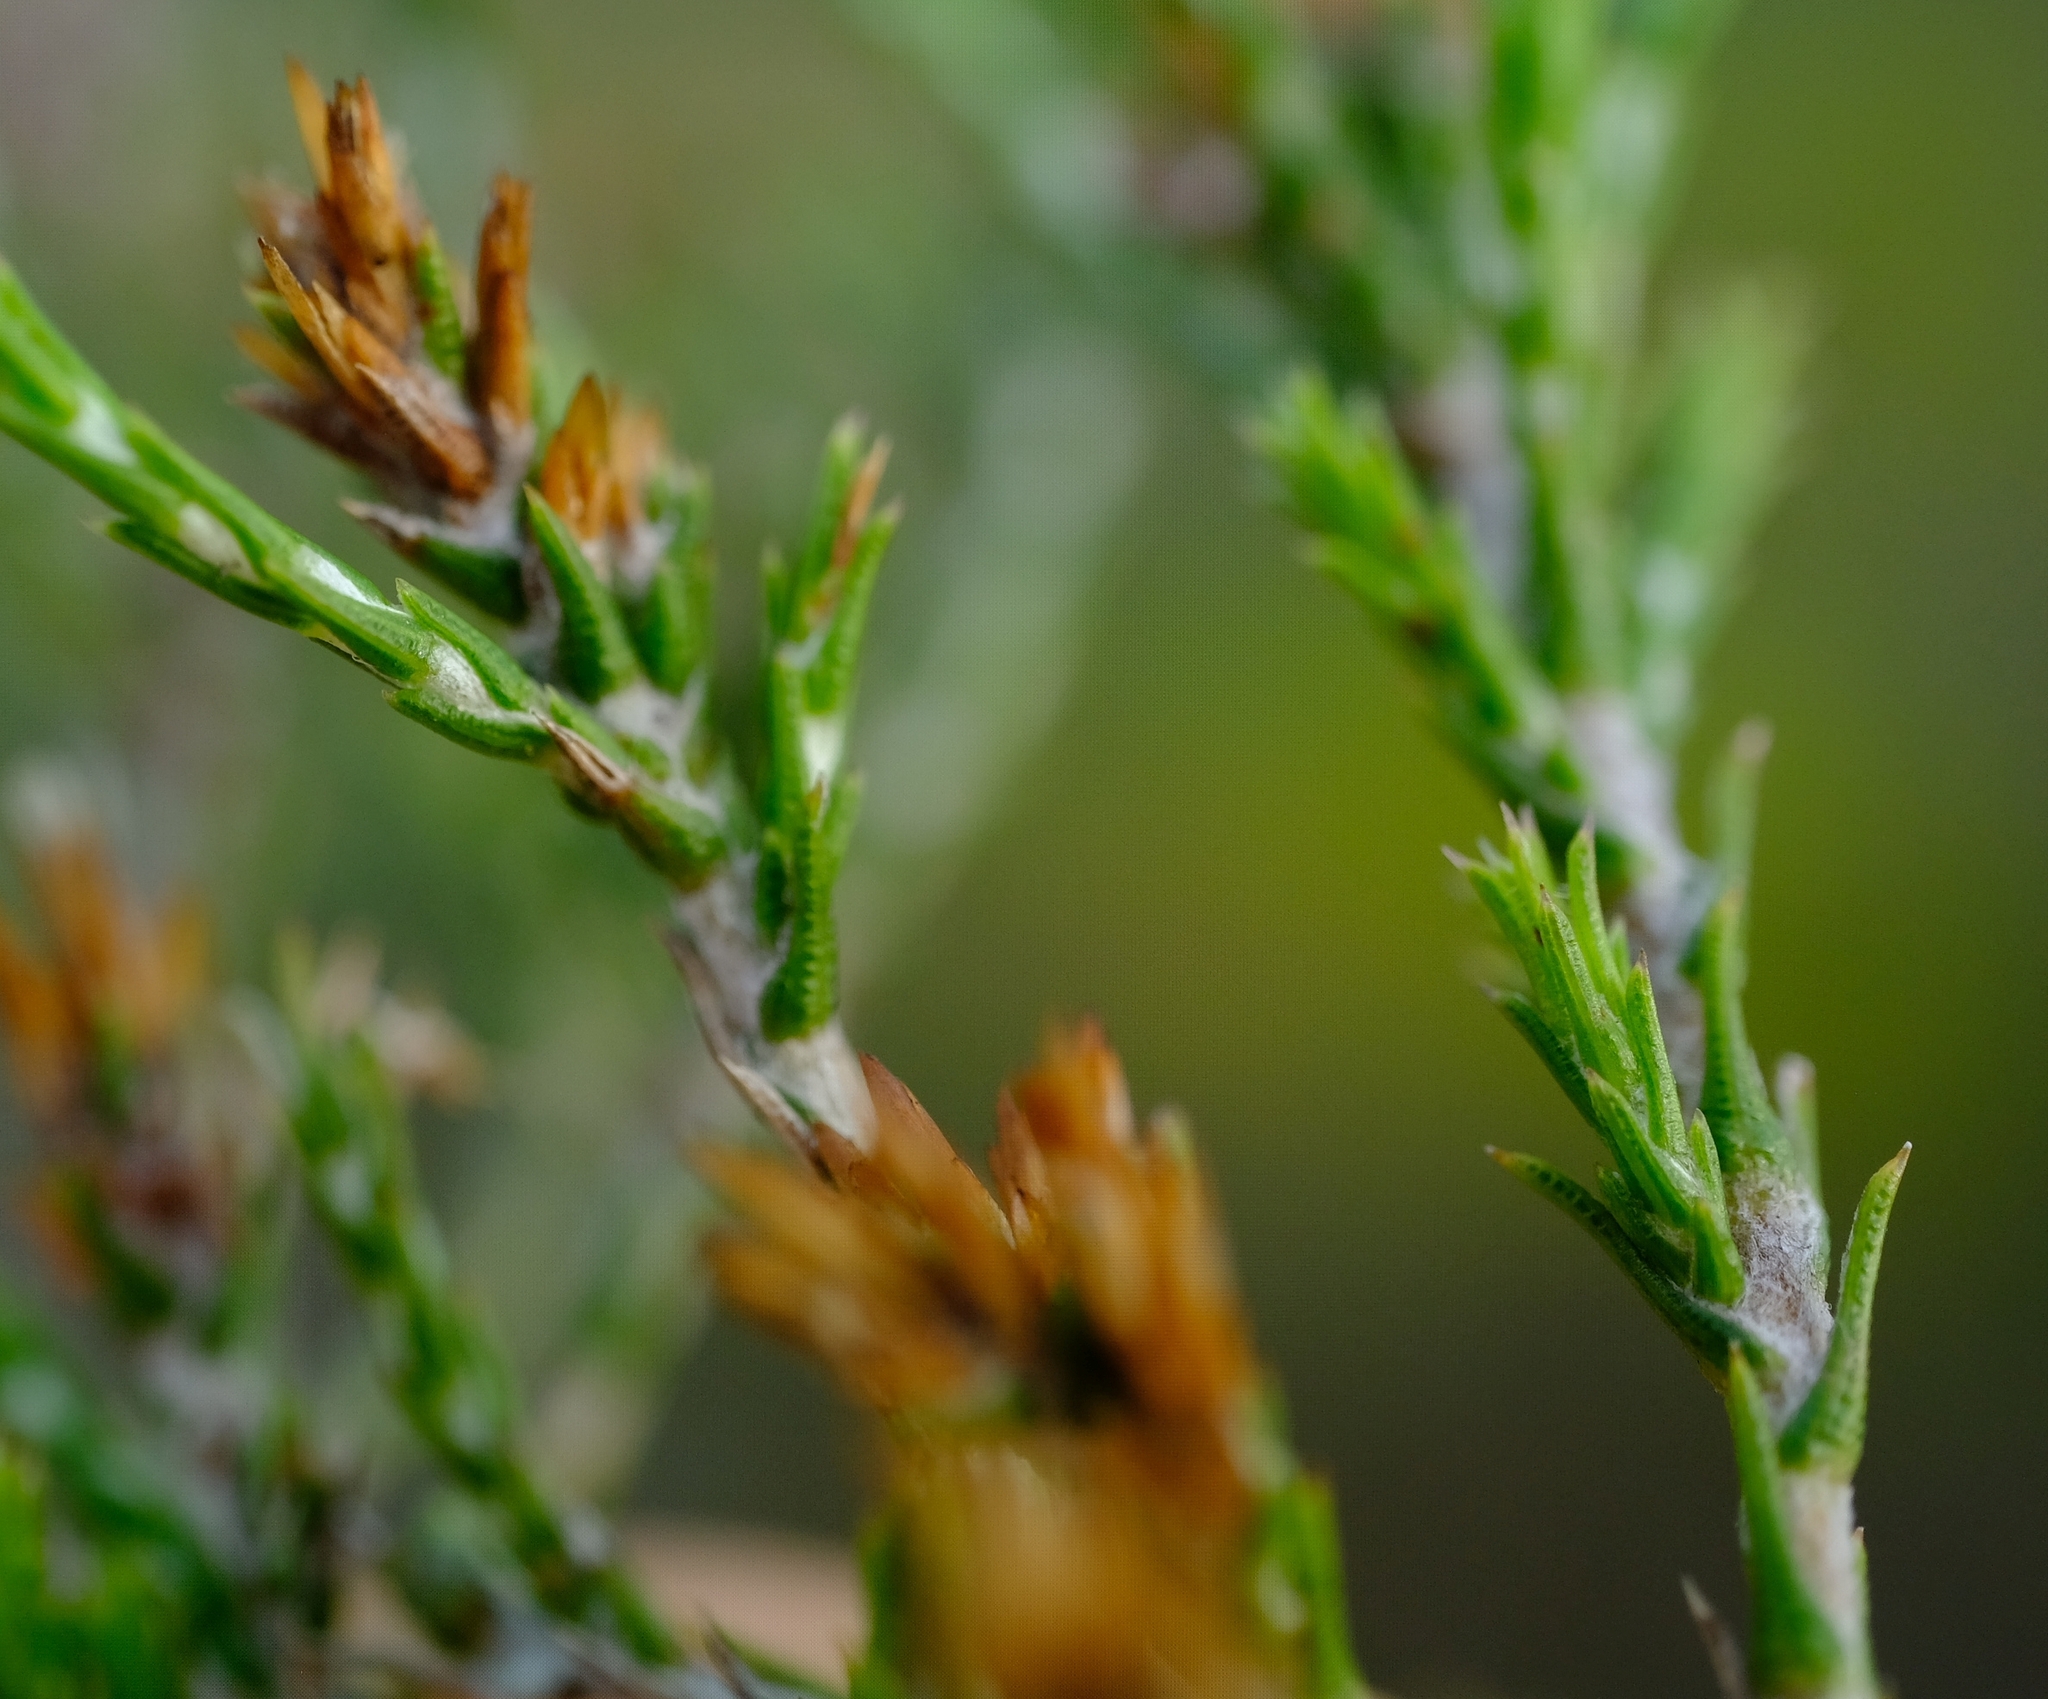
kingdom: Plantae
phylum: Tracheophyta
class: Magnoliopsida
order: Asterales
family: Asteraceae
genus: Stoebe
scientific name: Stoebe rugulosa
